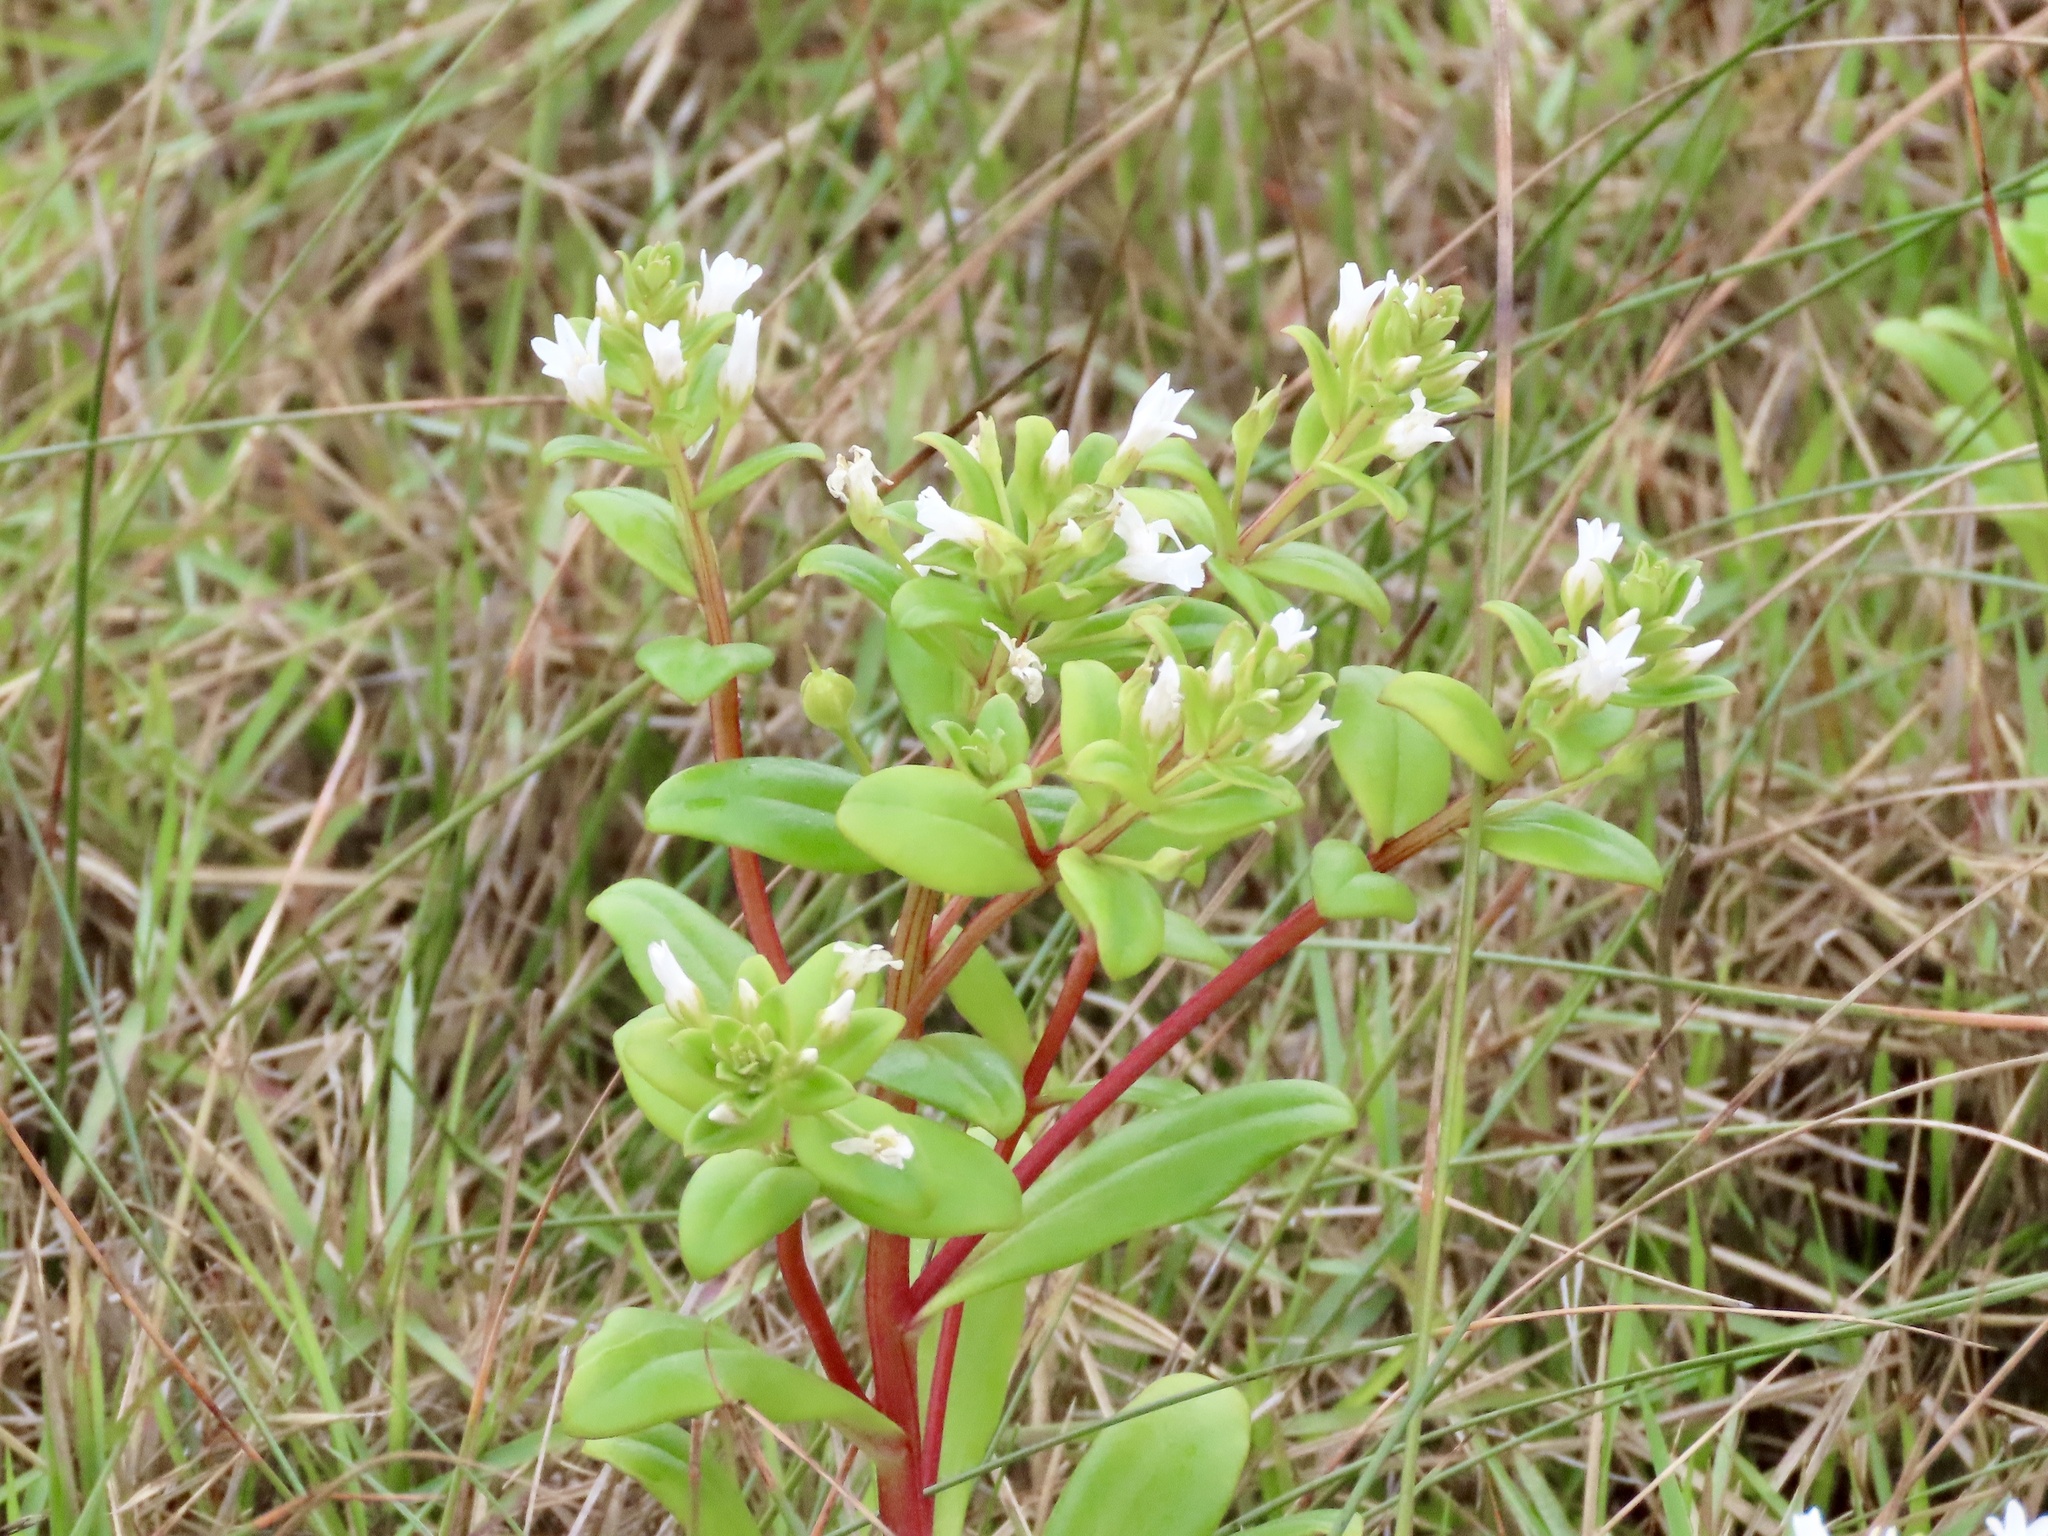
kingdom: Plantae
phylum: Tracheophyta
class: Magnoliopsida
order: Ericales
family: Primulaceae
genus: Lysimachia
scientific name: Lysimachia mauritiana
